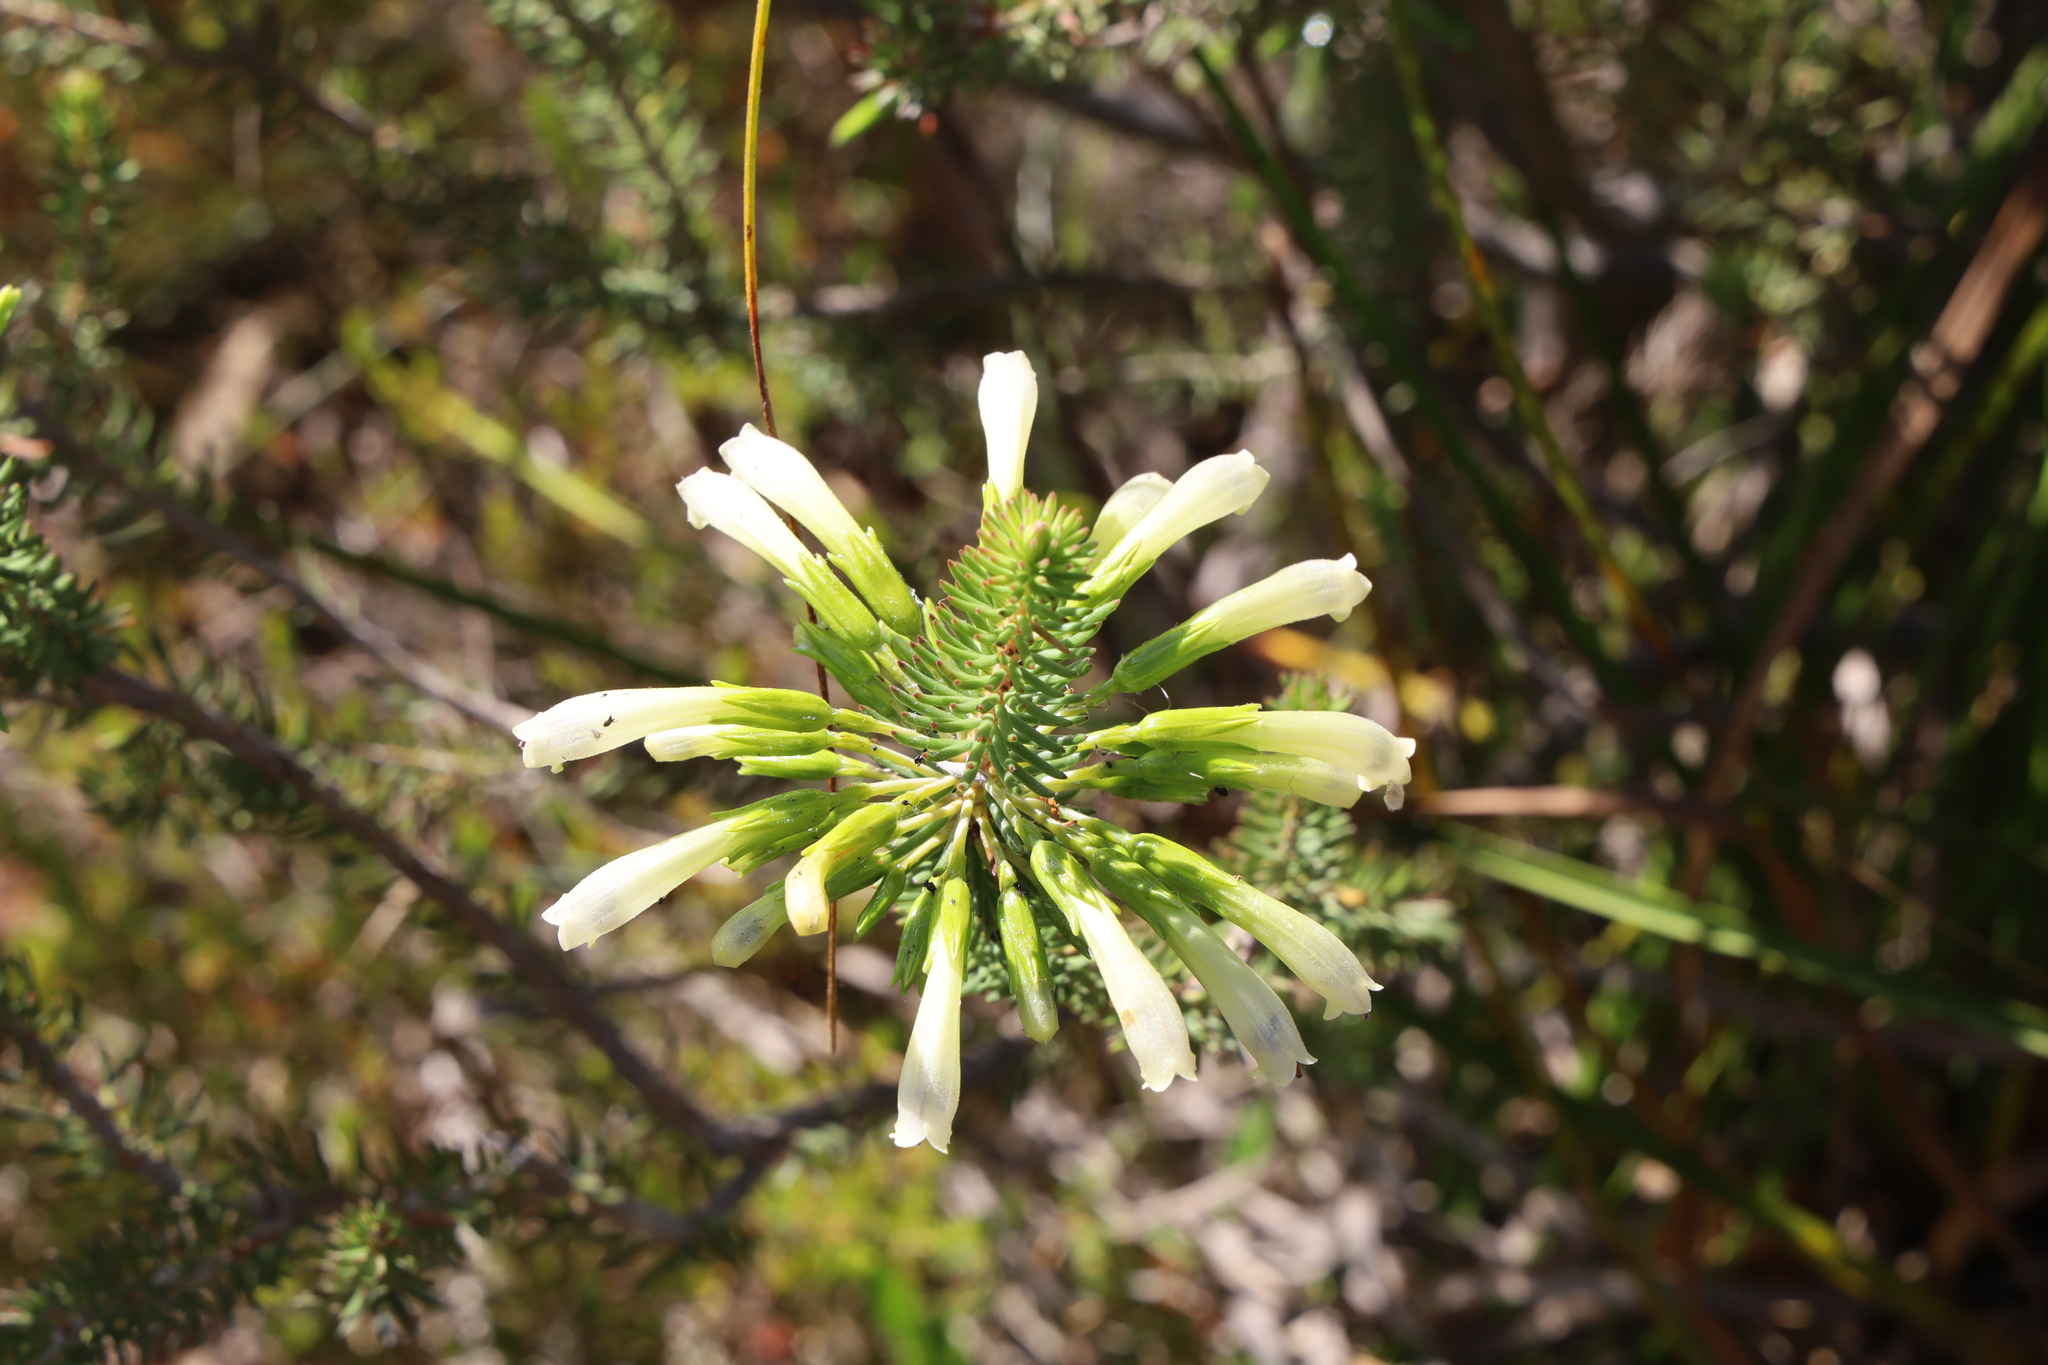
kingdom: Plantae
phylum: Tracheophyta
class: Magnoliopsida
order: Ericales
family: Ericaceae
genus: Erica
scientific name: Erica thomae
